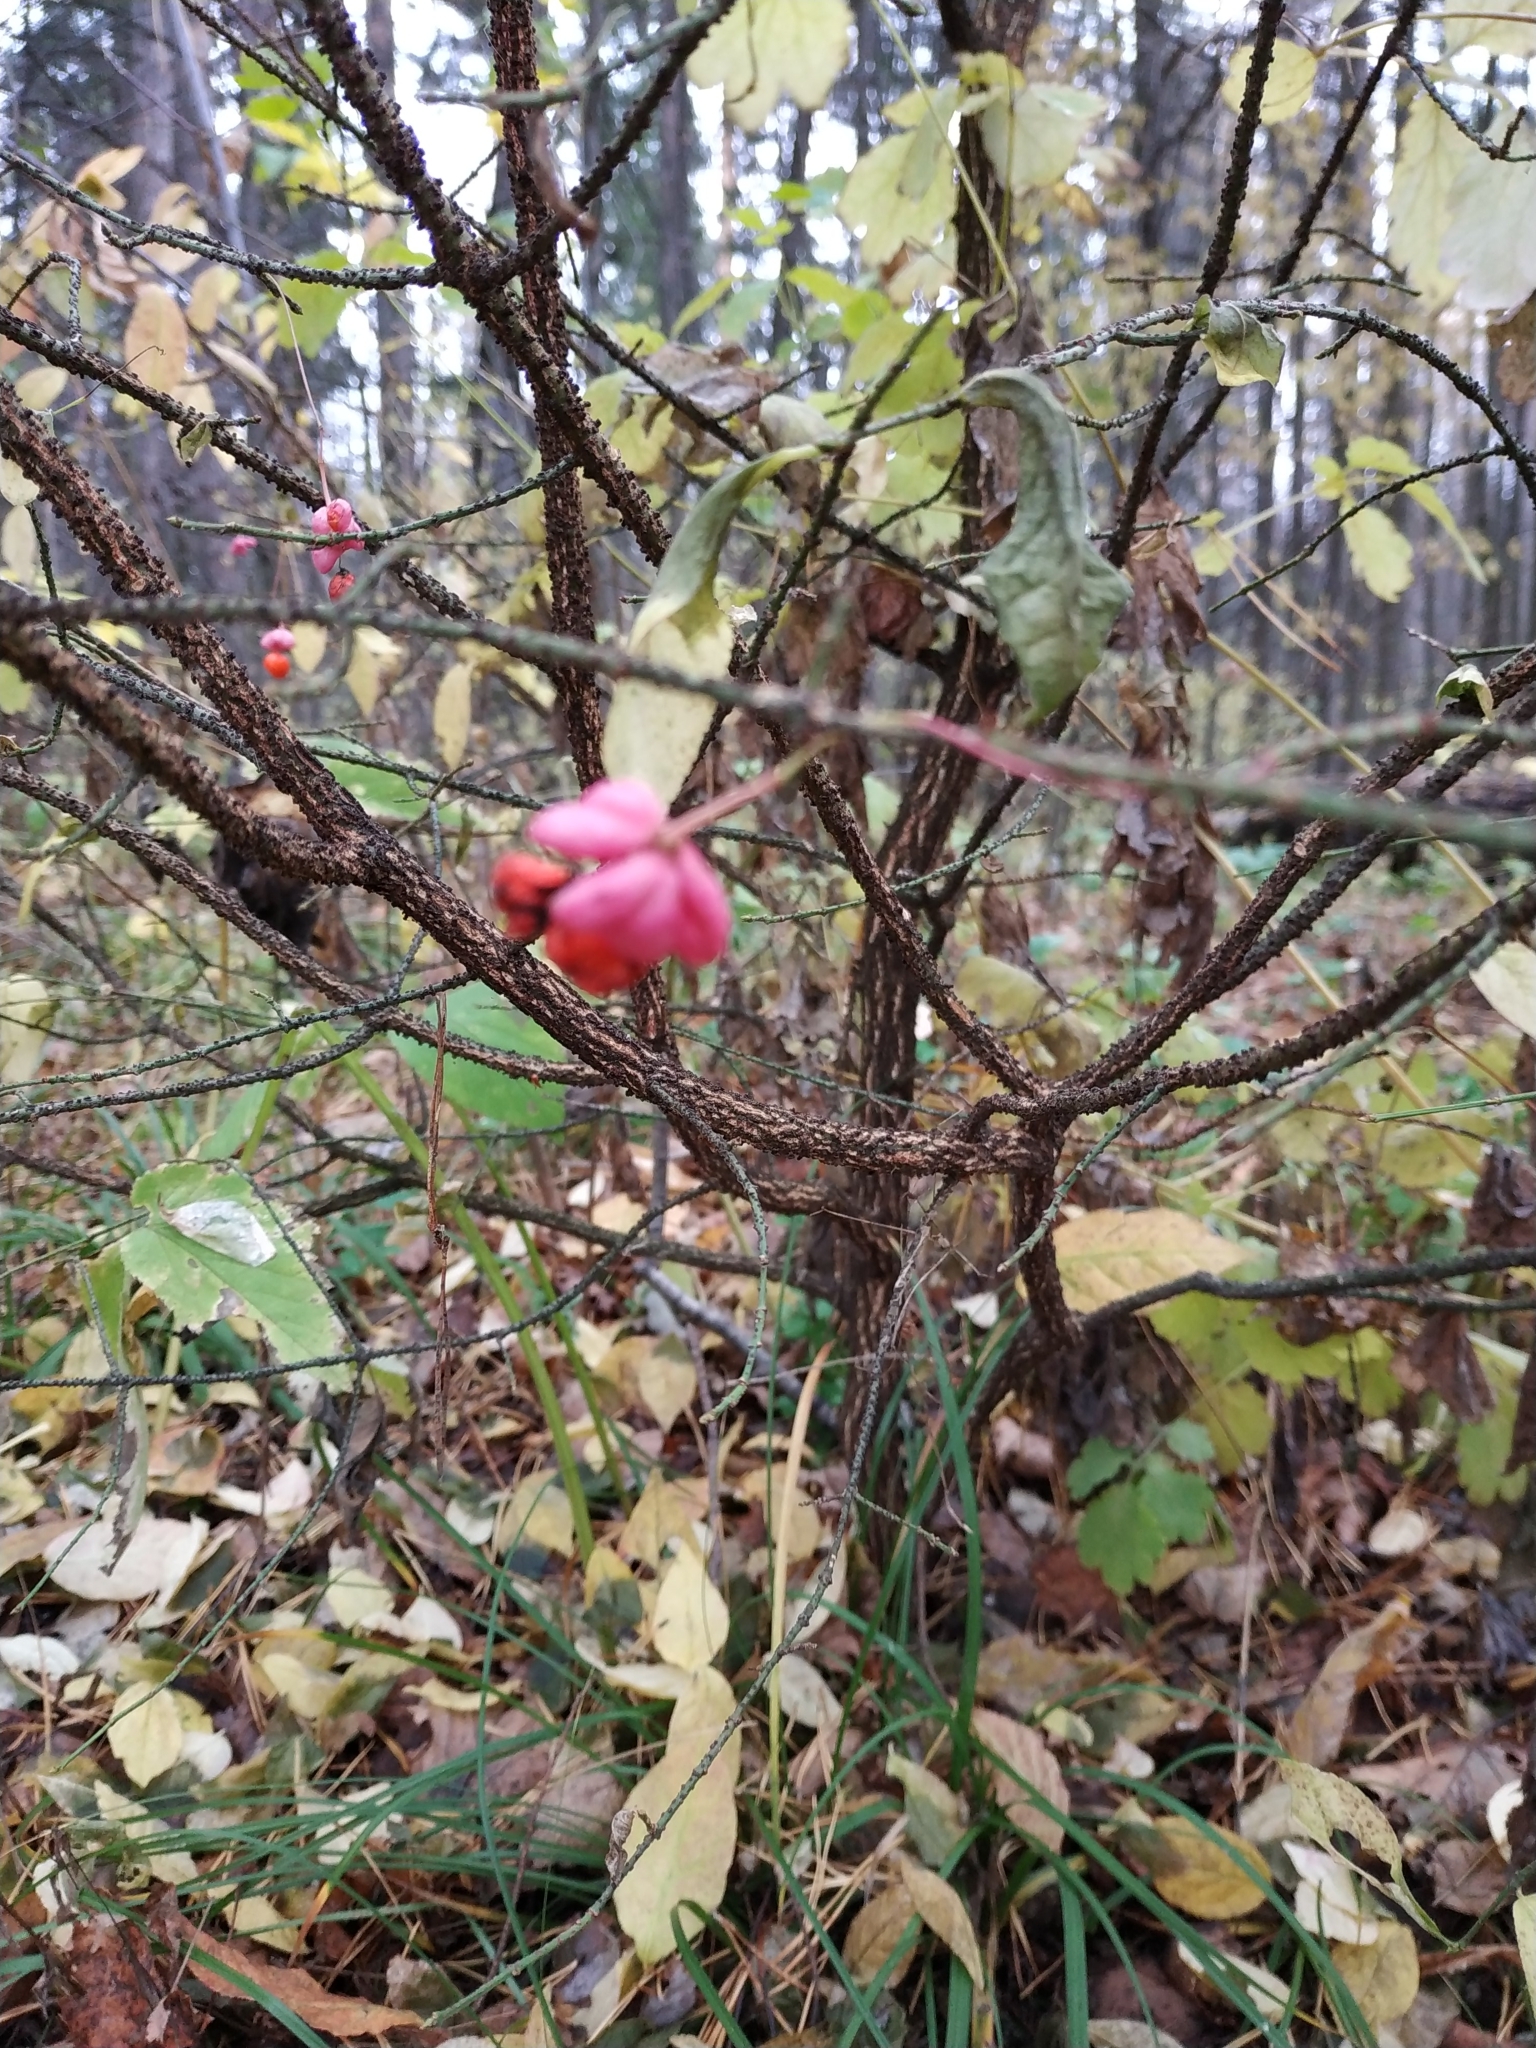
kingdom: Plantae
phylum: Tracheophyta
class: Magnoliopsida
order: Celastrales
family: Celastraceae
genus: Euonymus
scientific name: Euonymus verrucosus
